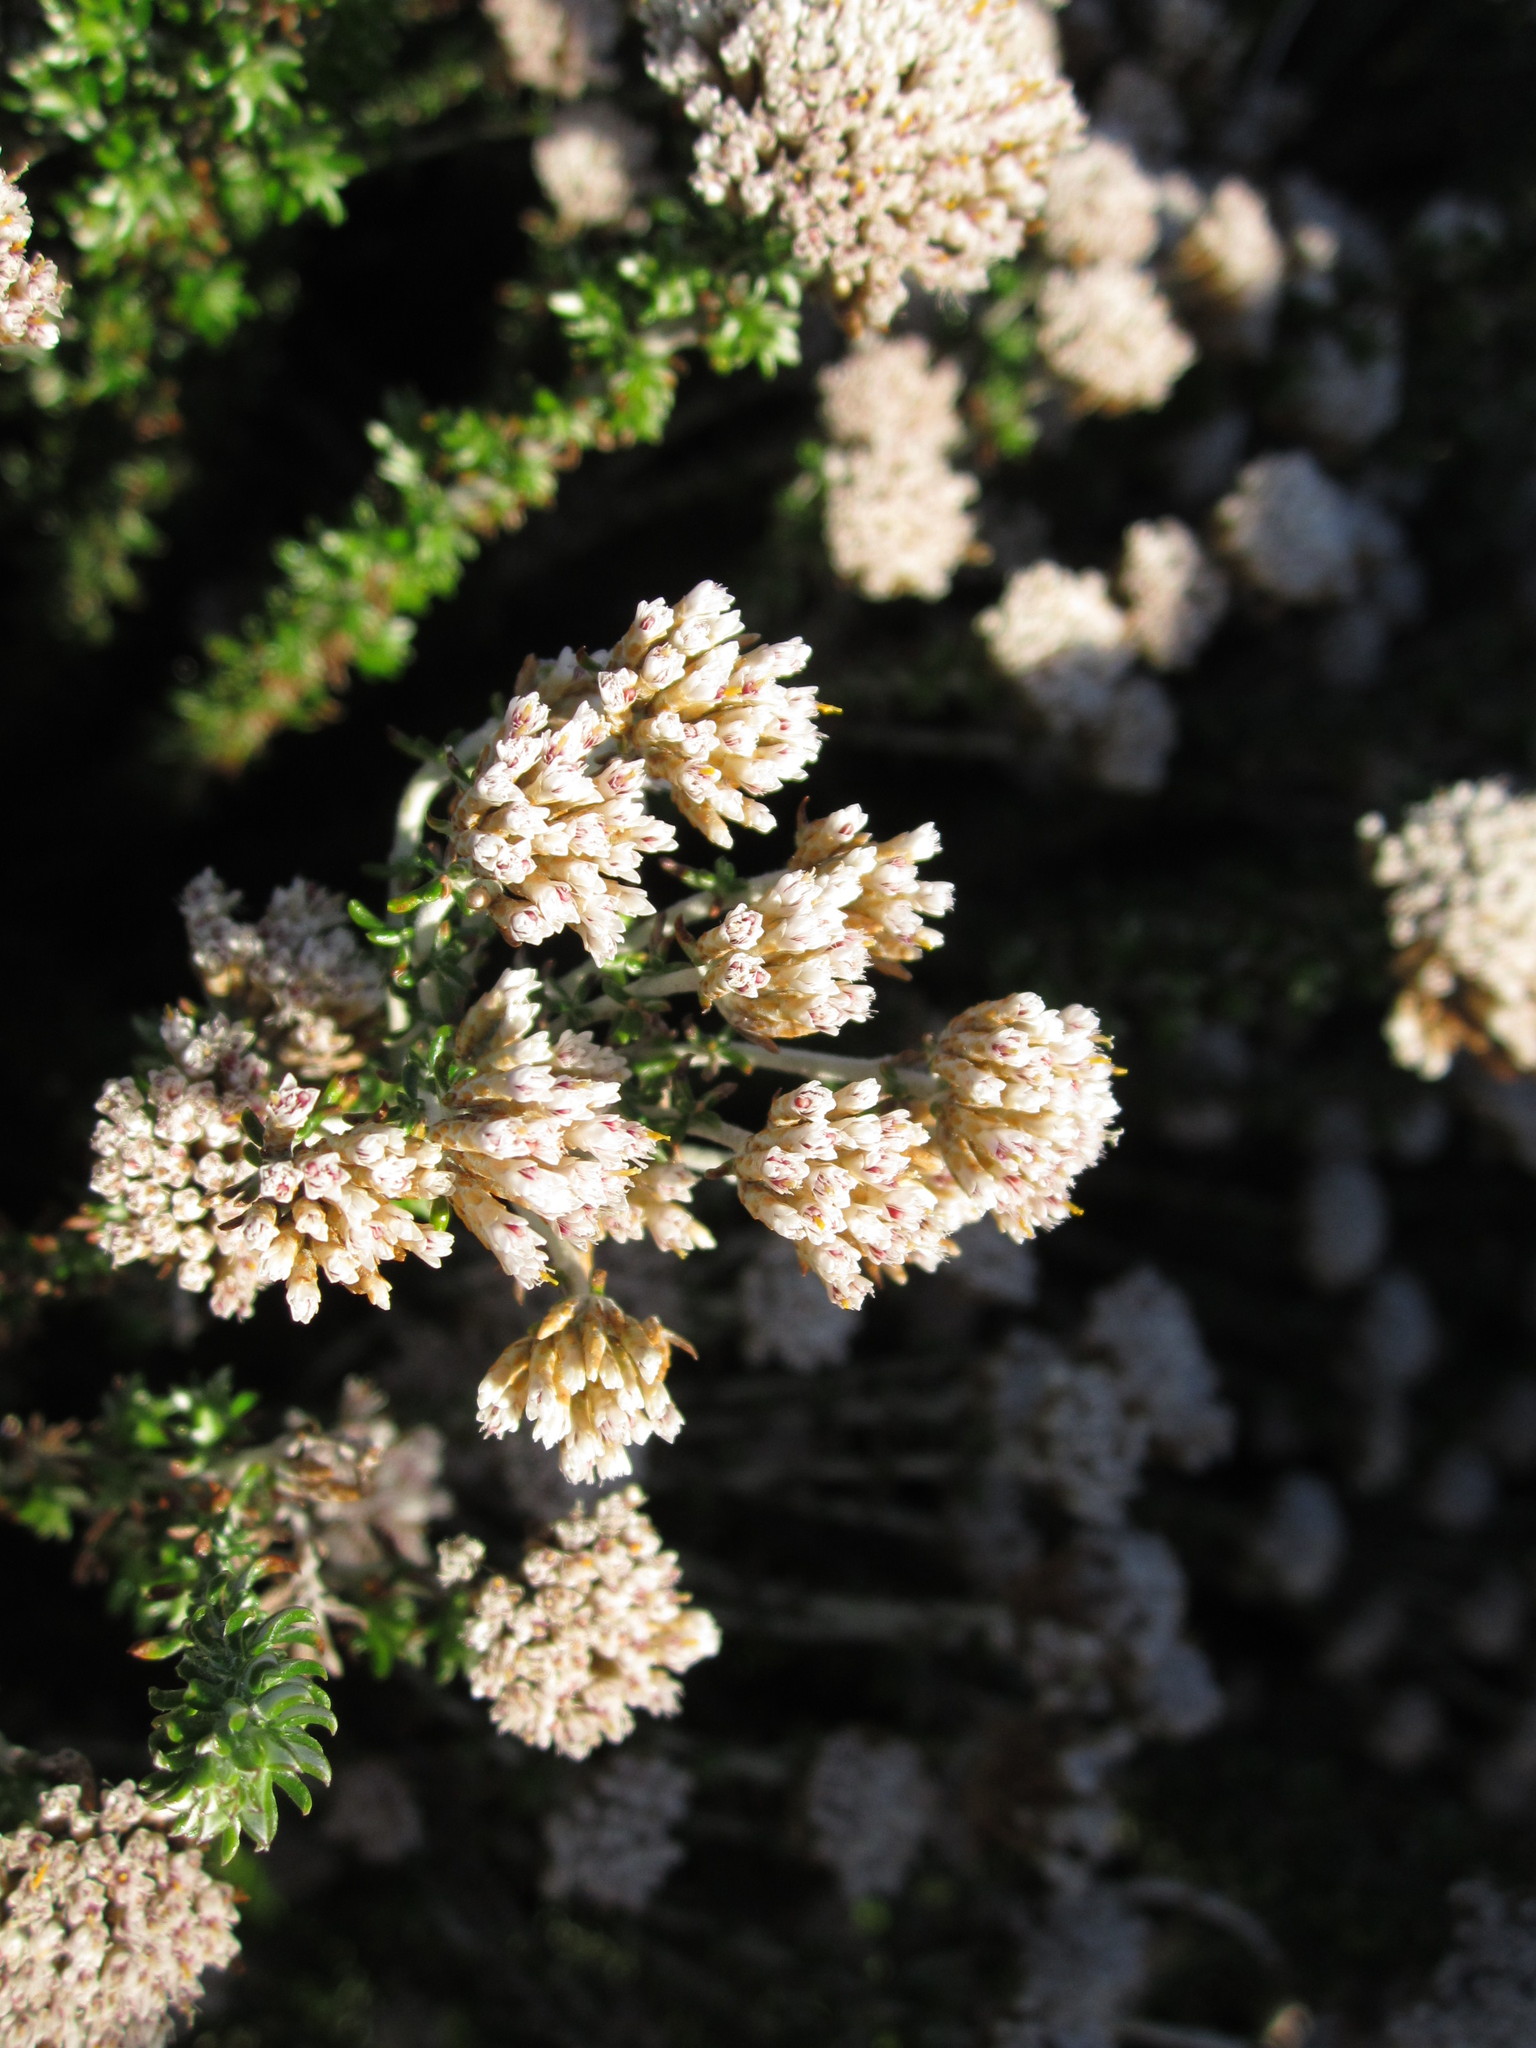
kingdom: Plantae
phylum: Tracheophyta
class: Magnoliopsida
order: Asterales
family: Asteraceae
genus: Metalasia
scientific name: Metalasia muricata
